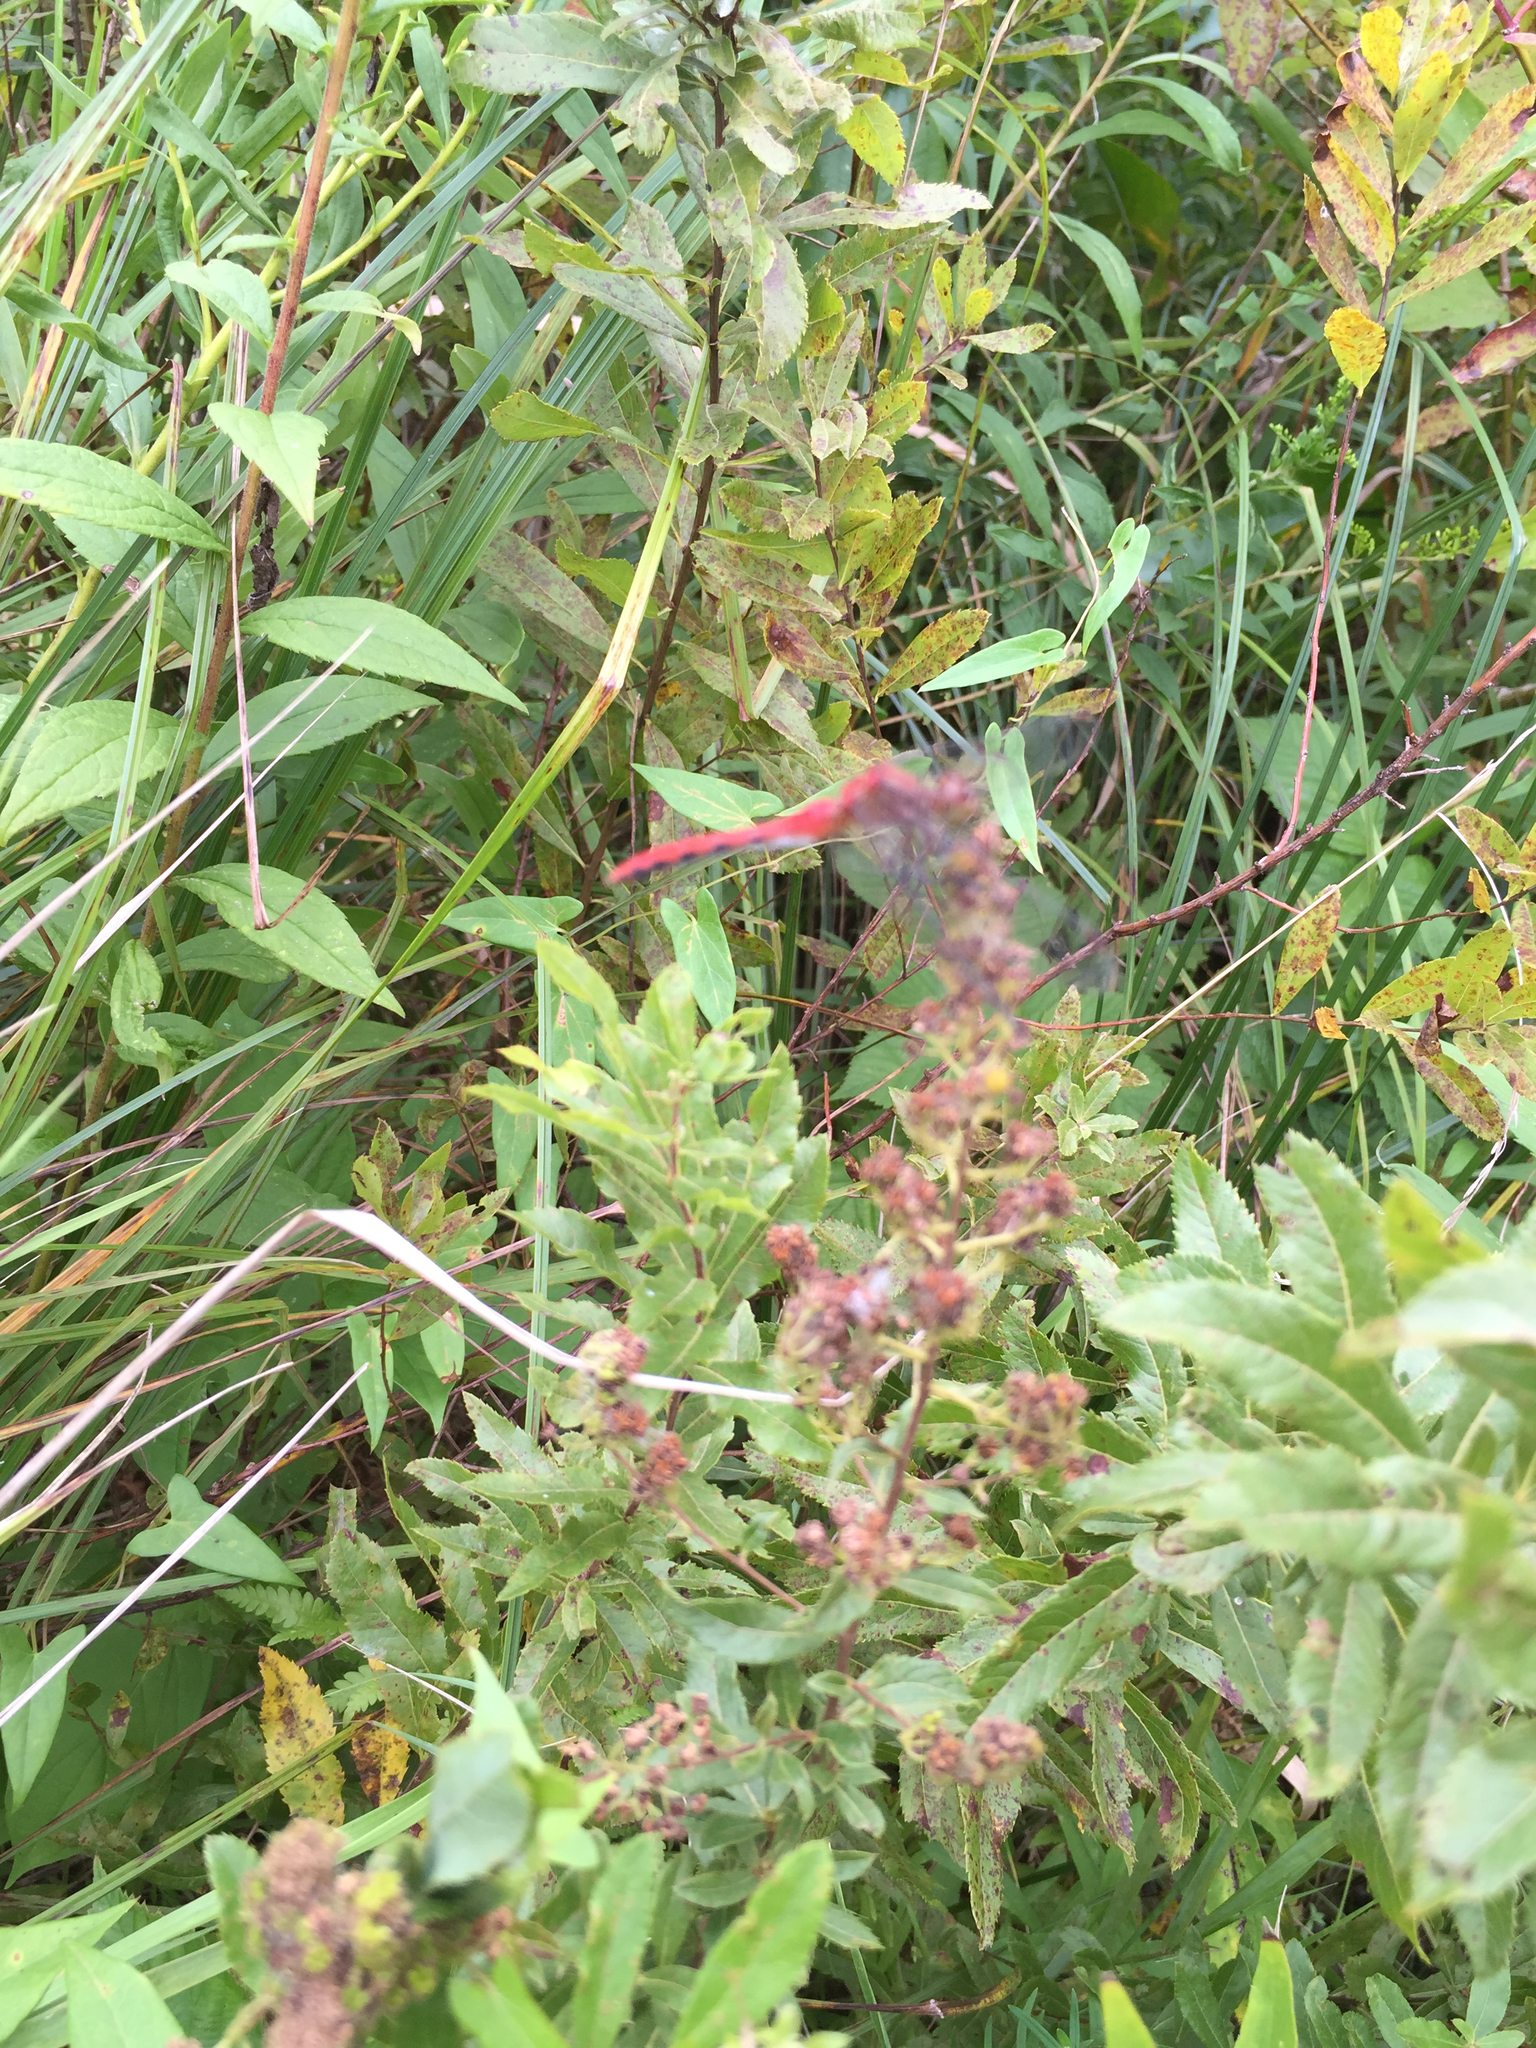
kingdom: Animalia
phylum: Arthropoda
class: Insecta
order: Odonata
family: Libellulidae
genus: Sympetrum
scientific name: Sympetrum
